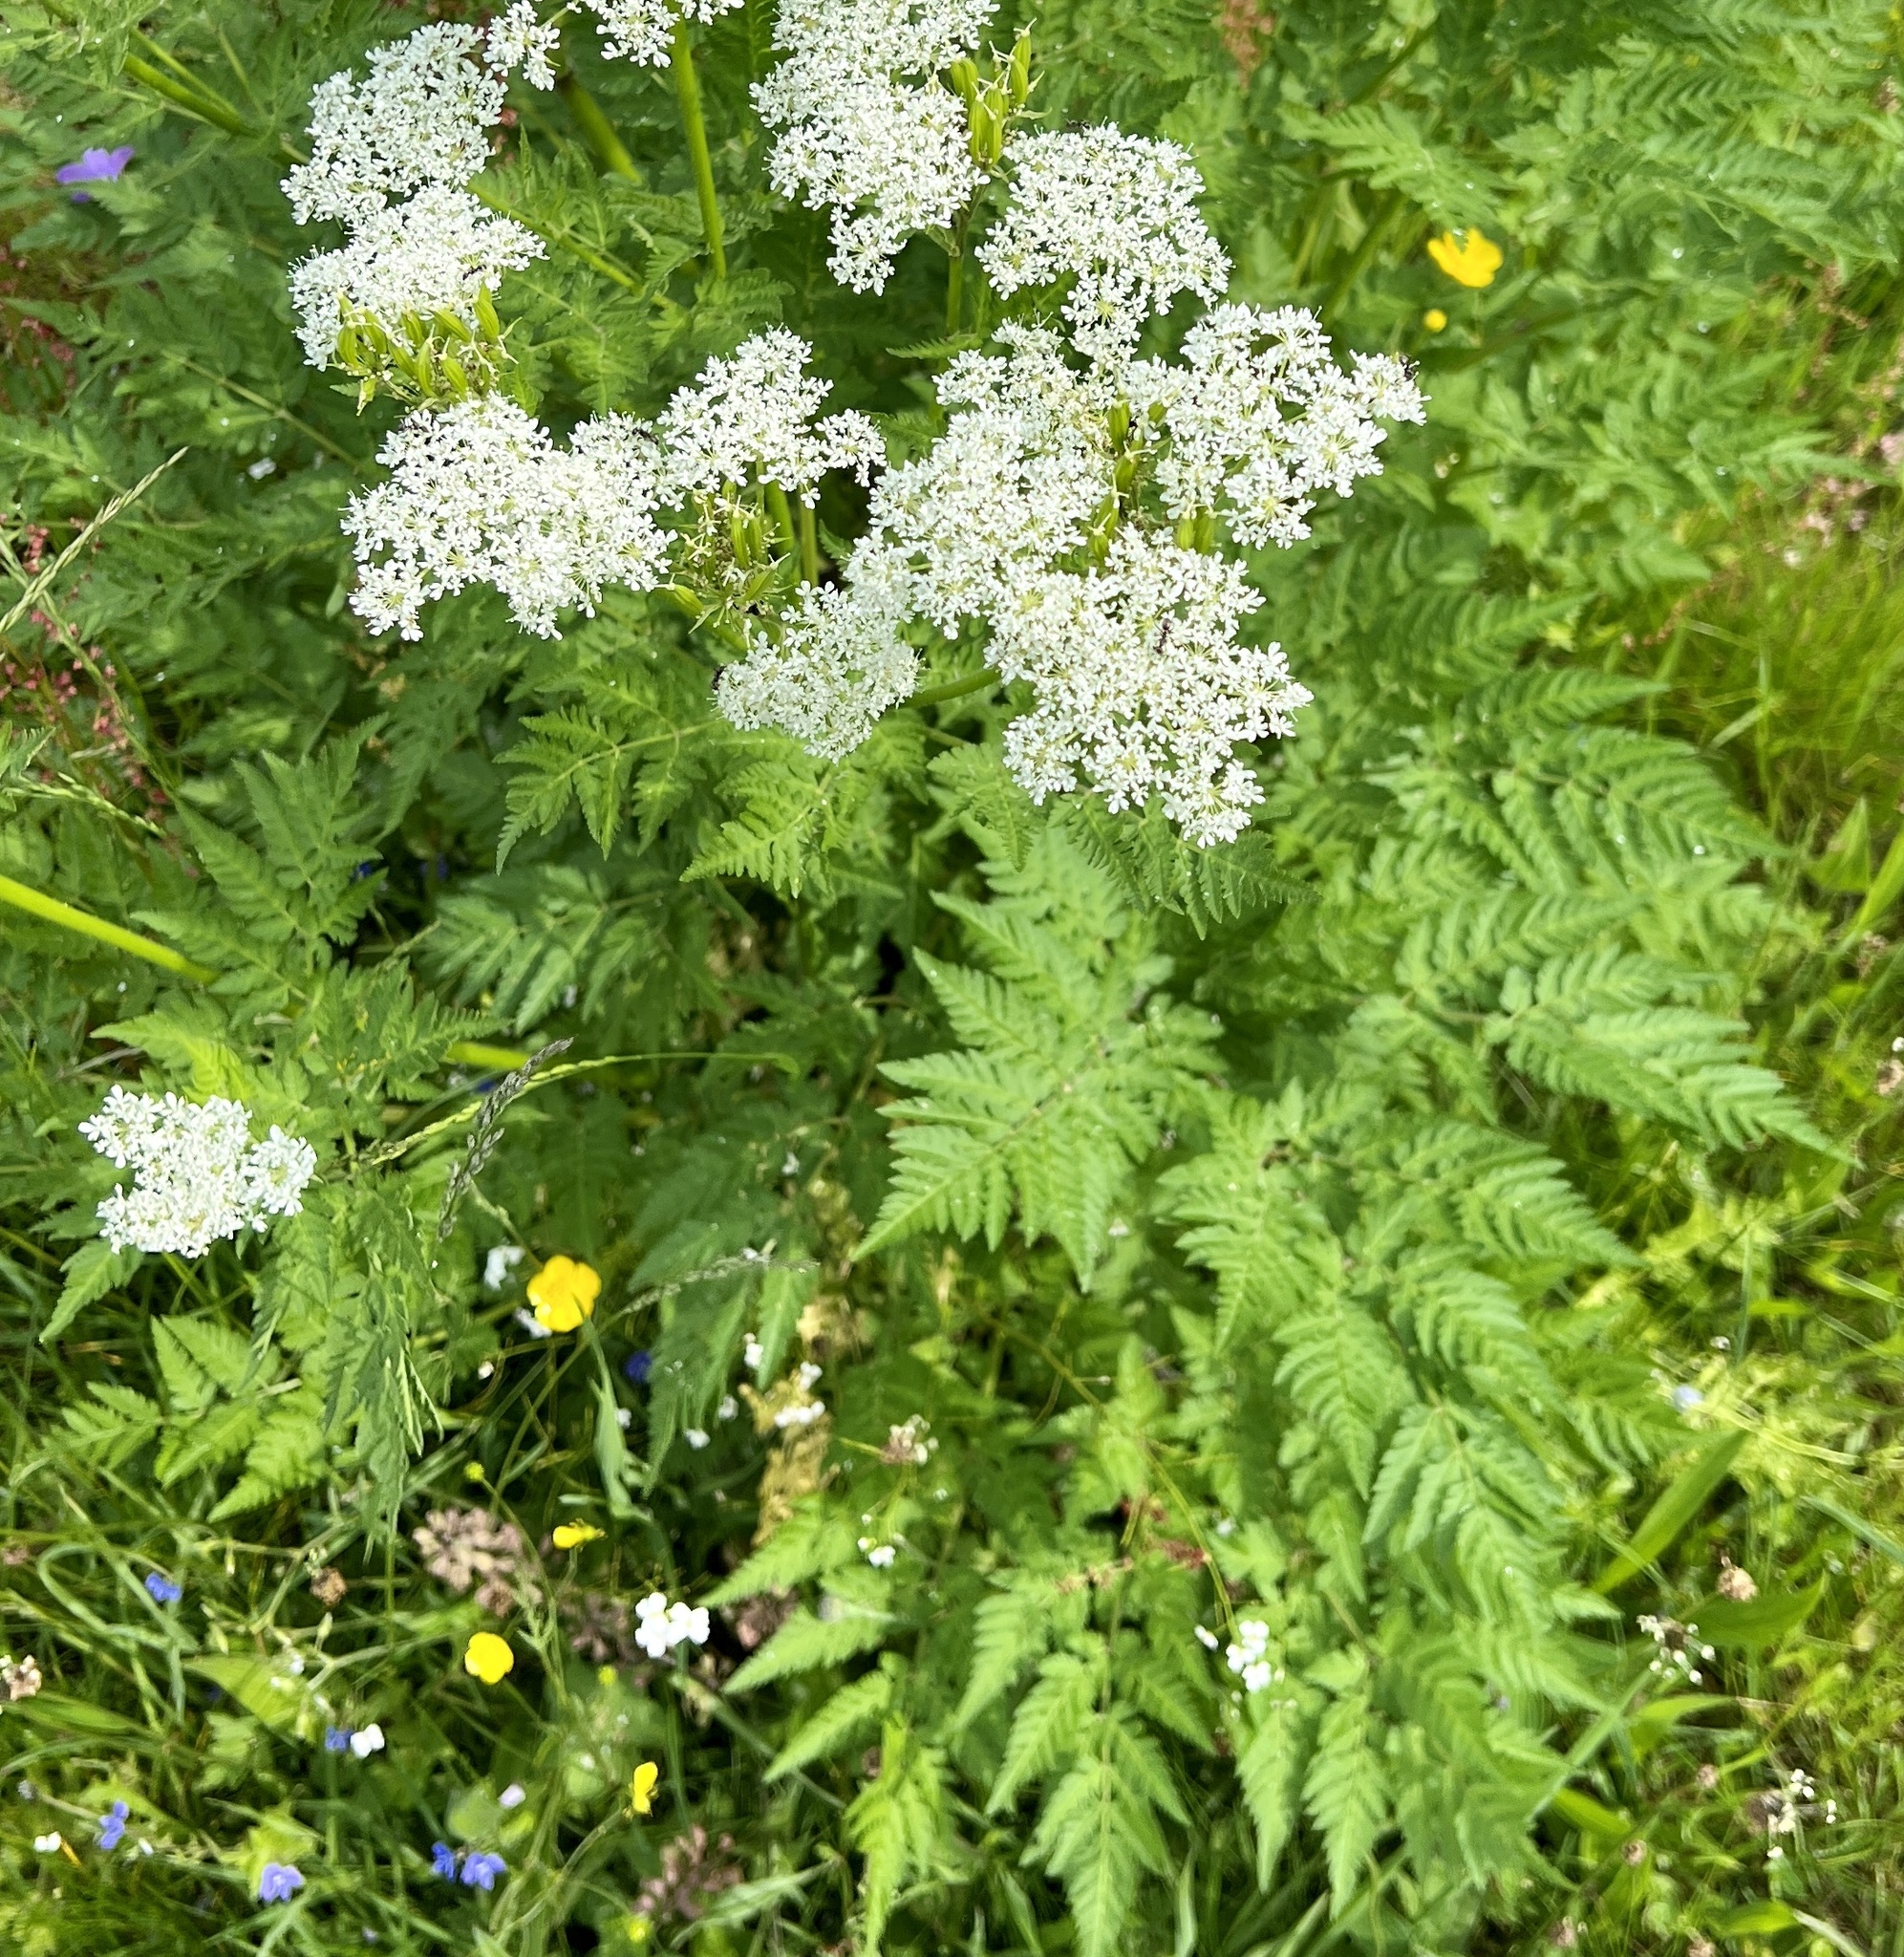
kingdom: Plantae
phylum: Tracheophyta
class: Magnoliopsida
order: Apiales
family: Apiaceae
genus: Myrrhis
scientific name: Myrrhis odorata
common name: Sweet cicely
